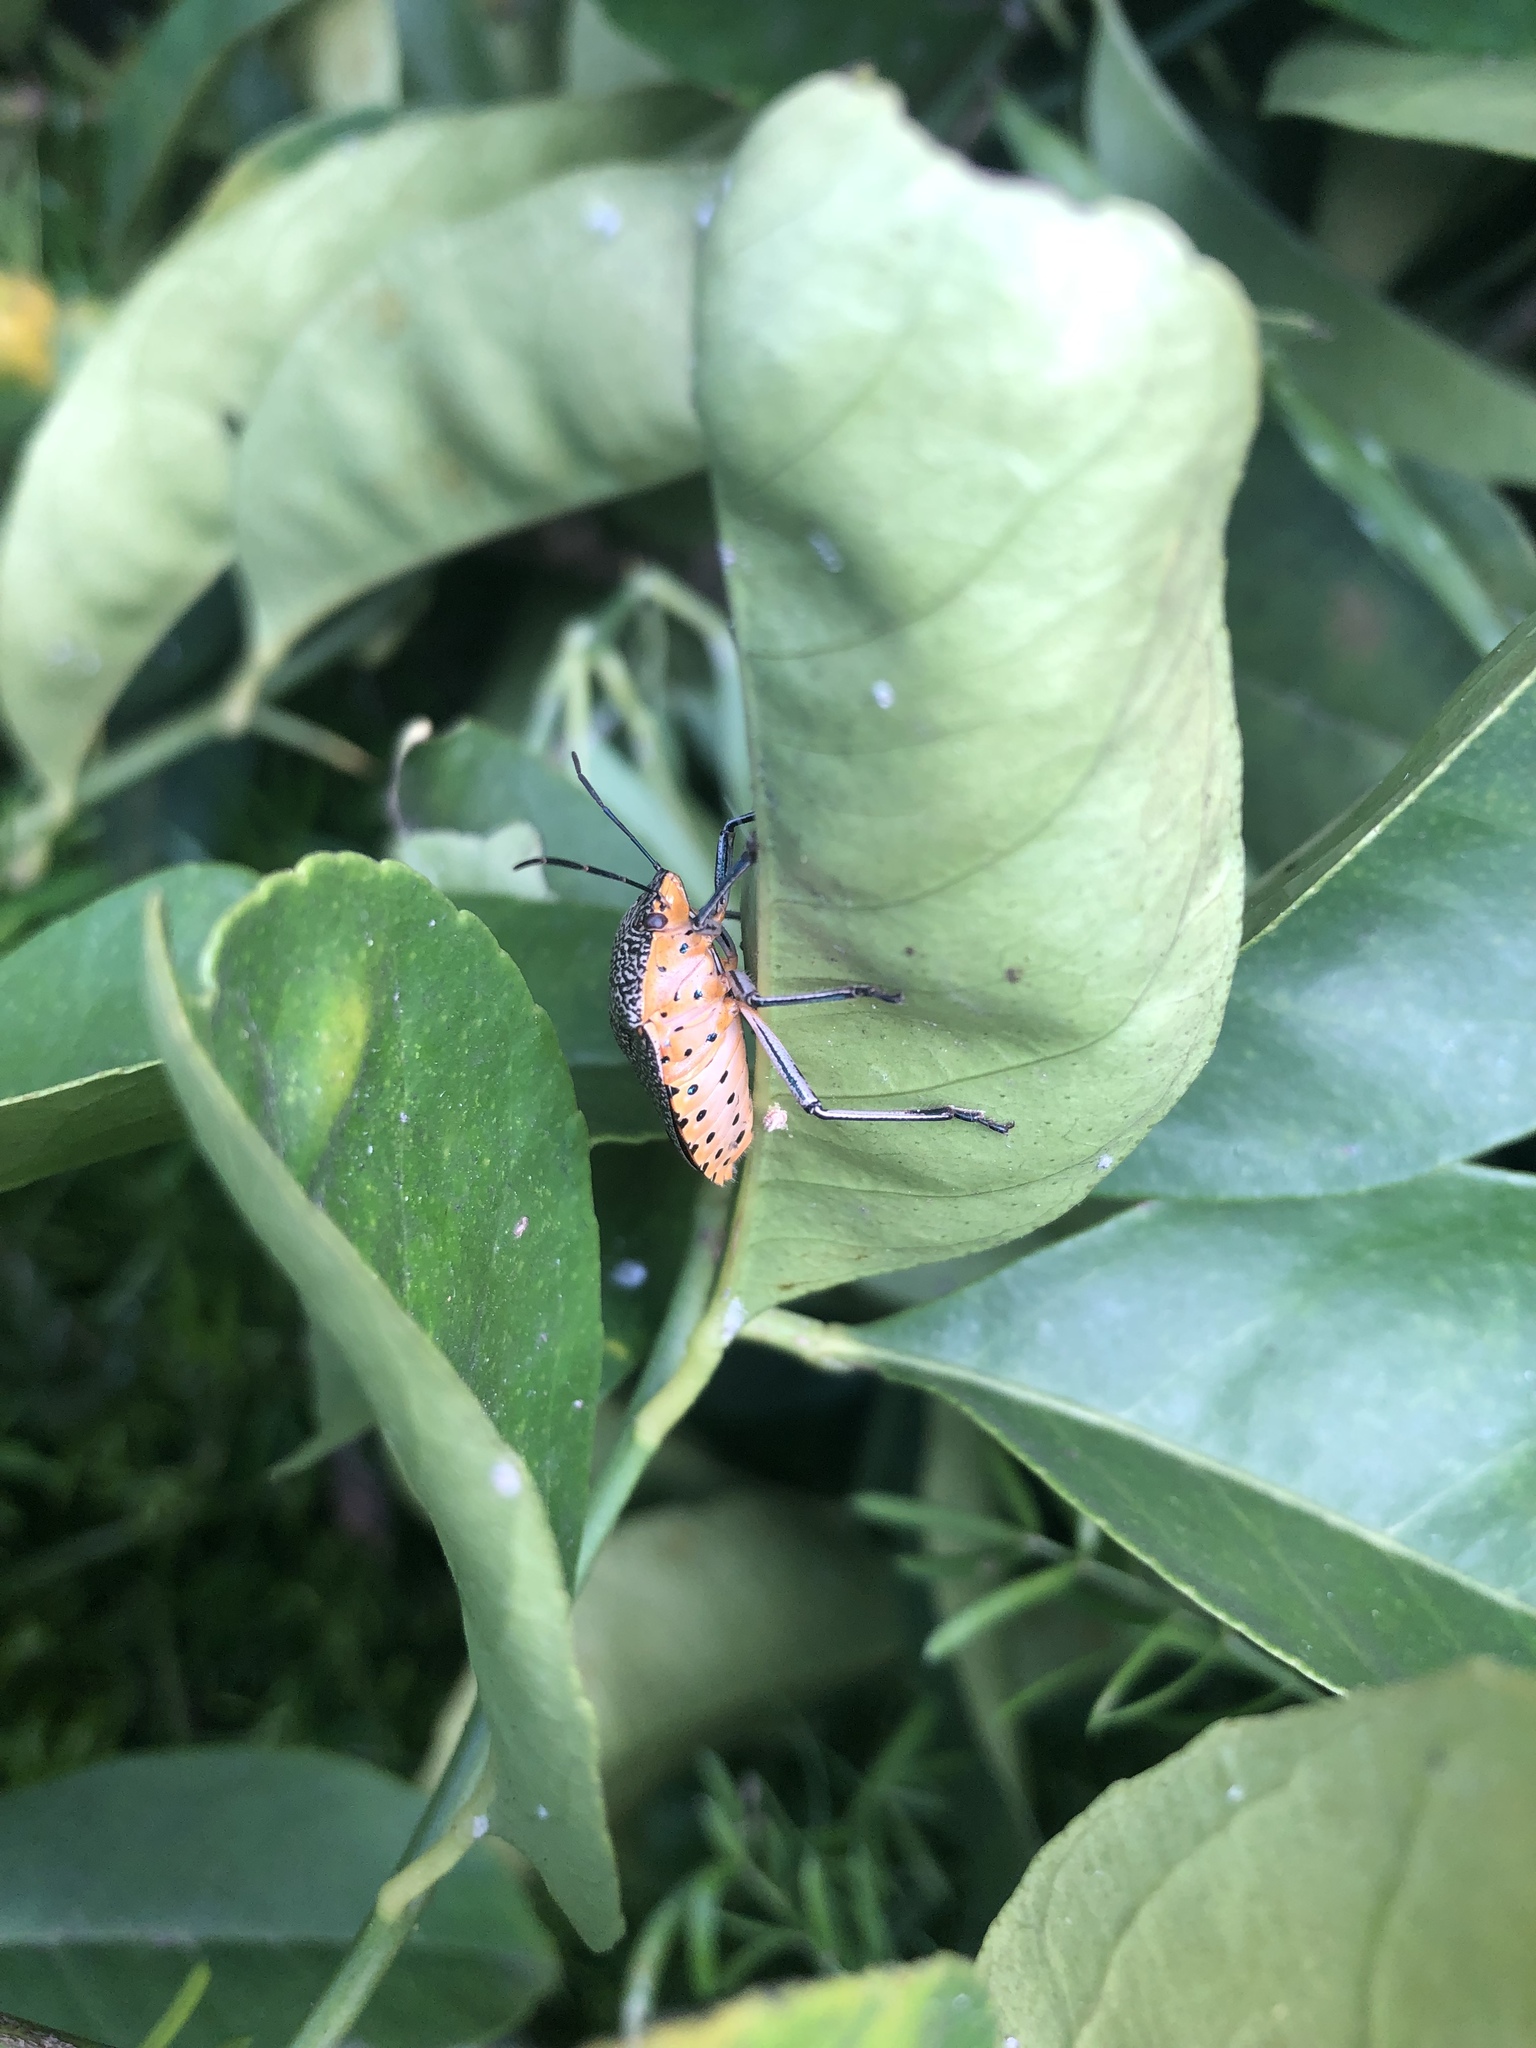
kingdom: Animalia
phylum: Arthropoda
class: Insecta
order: Hemiptera
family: Pentatomidae
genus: Pellaea
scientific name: Pellaea stictica
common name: Stink bug
